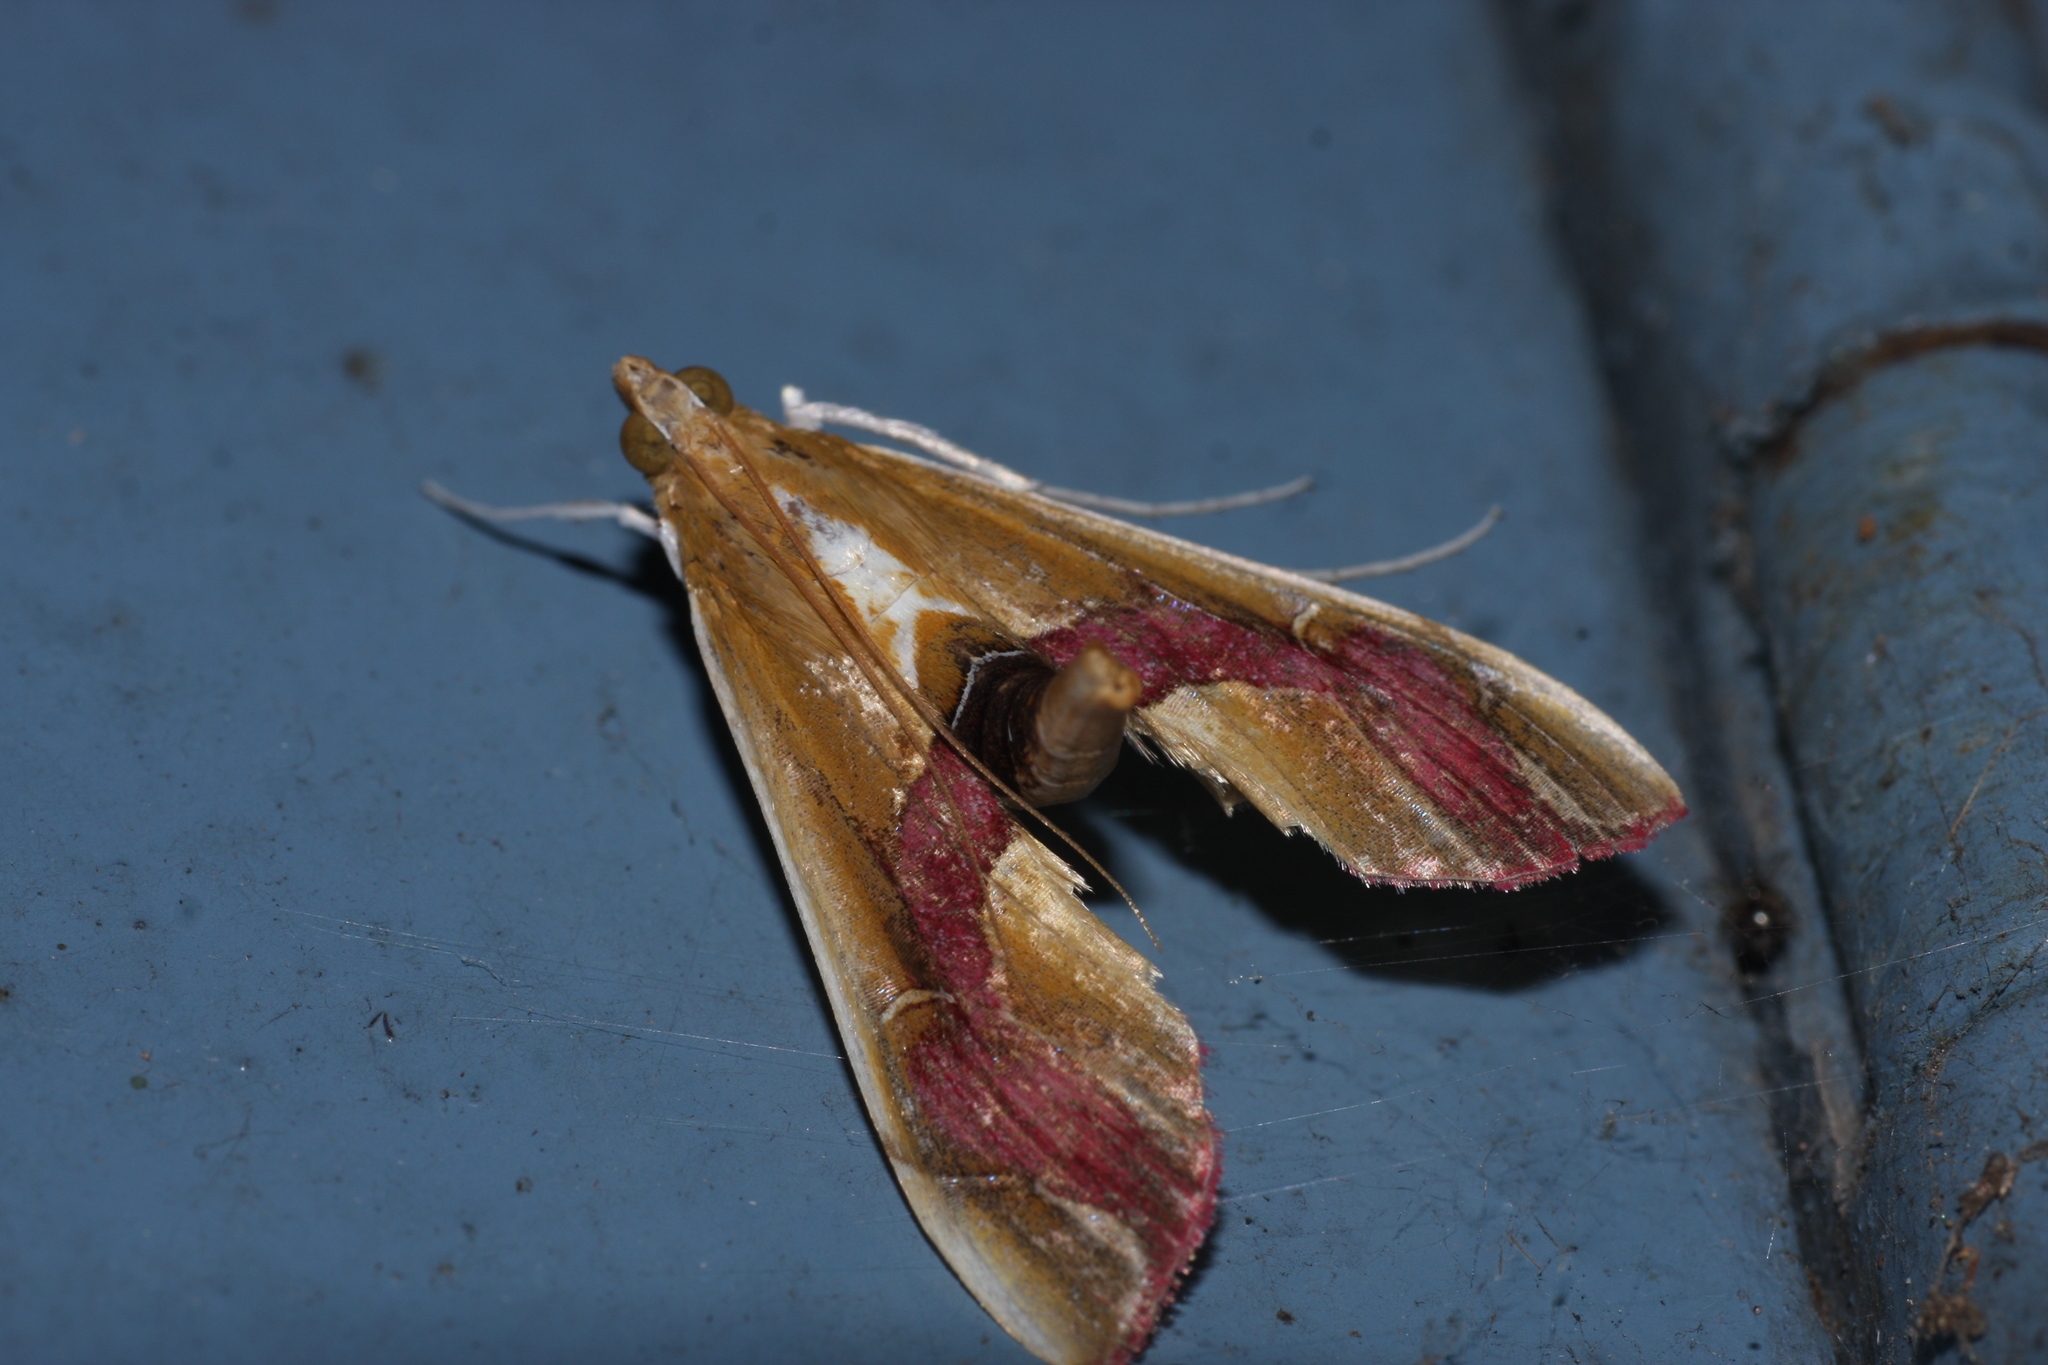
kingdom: Animalia
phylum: Arthropoda
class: Insecta
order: Lepidoptera
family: Crambidae
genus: Agathodes
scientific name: Agathodes ostentalis
